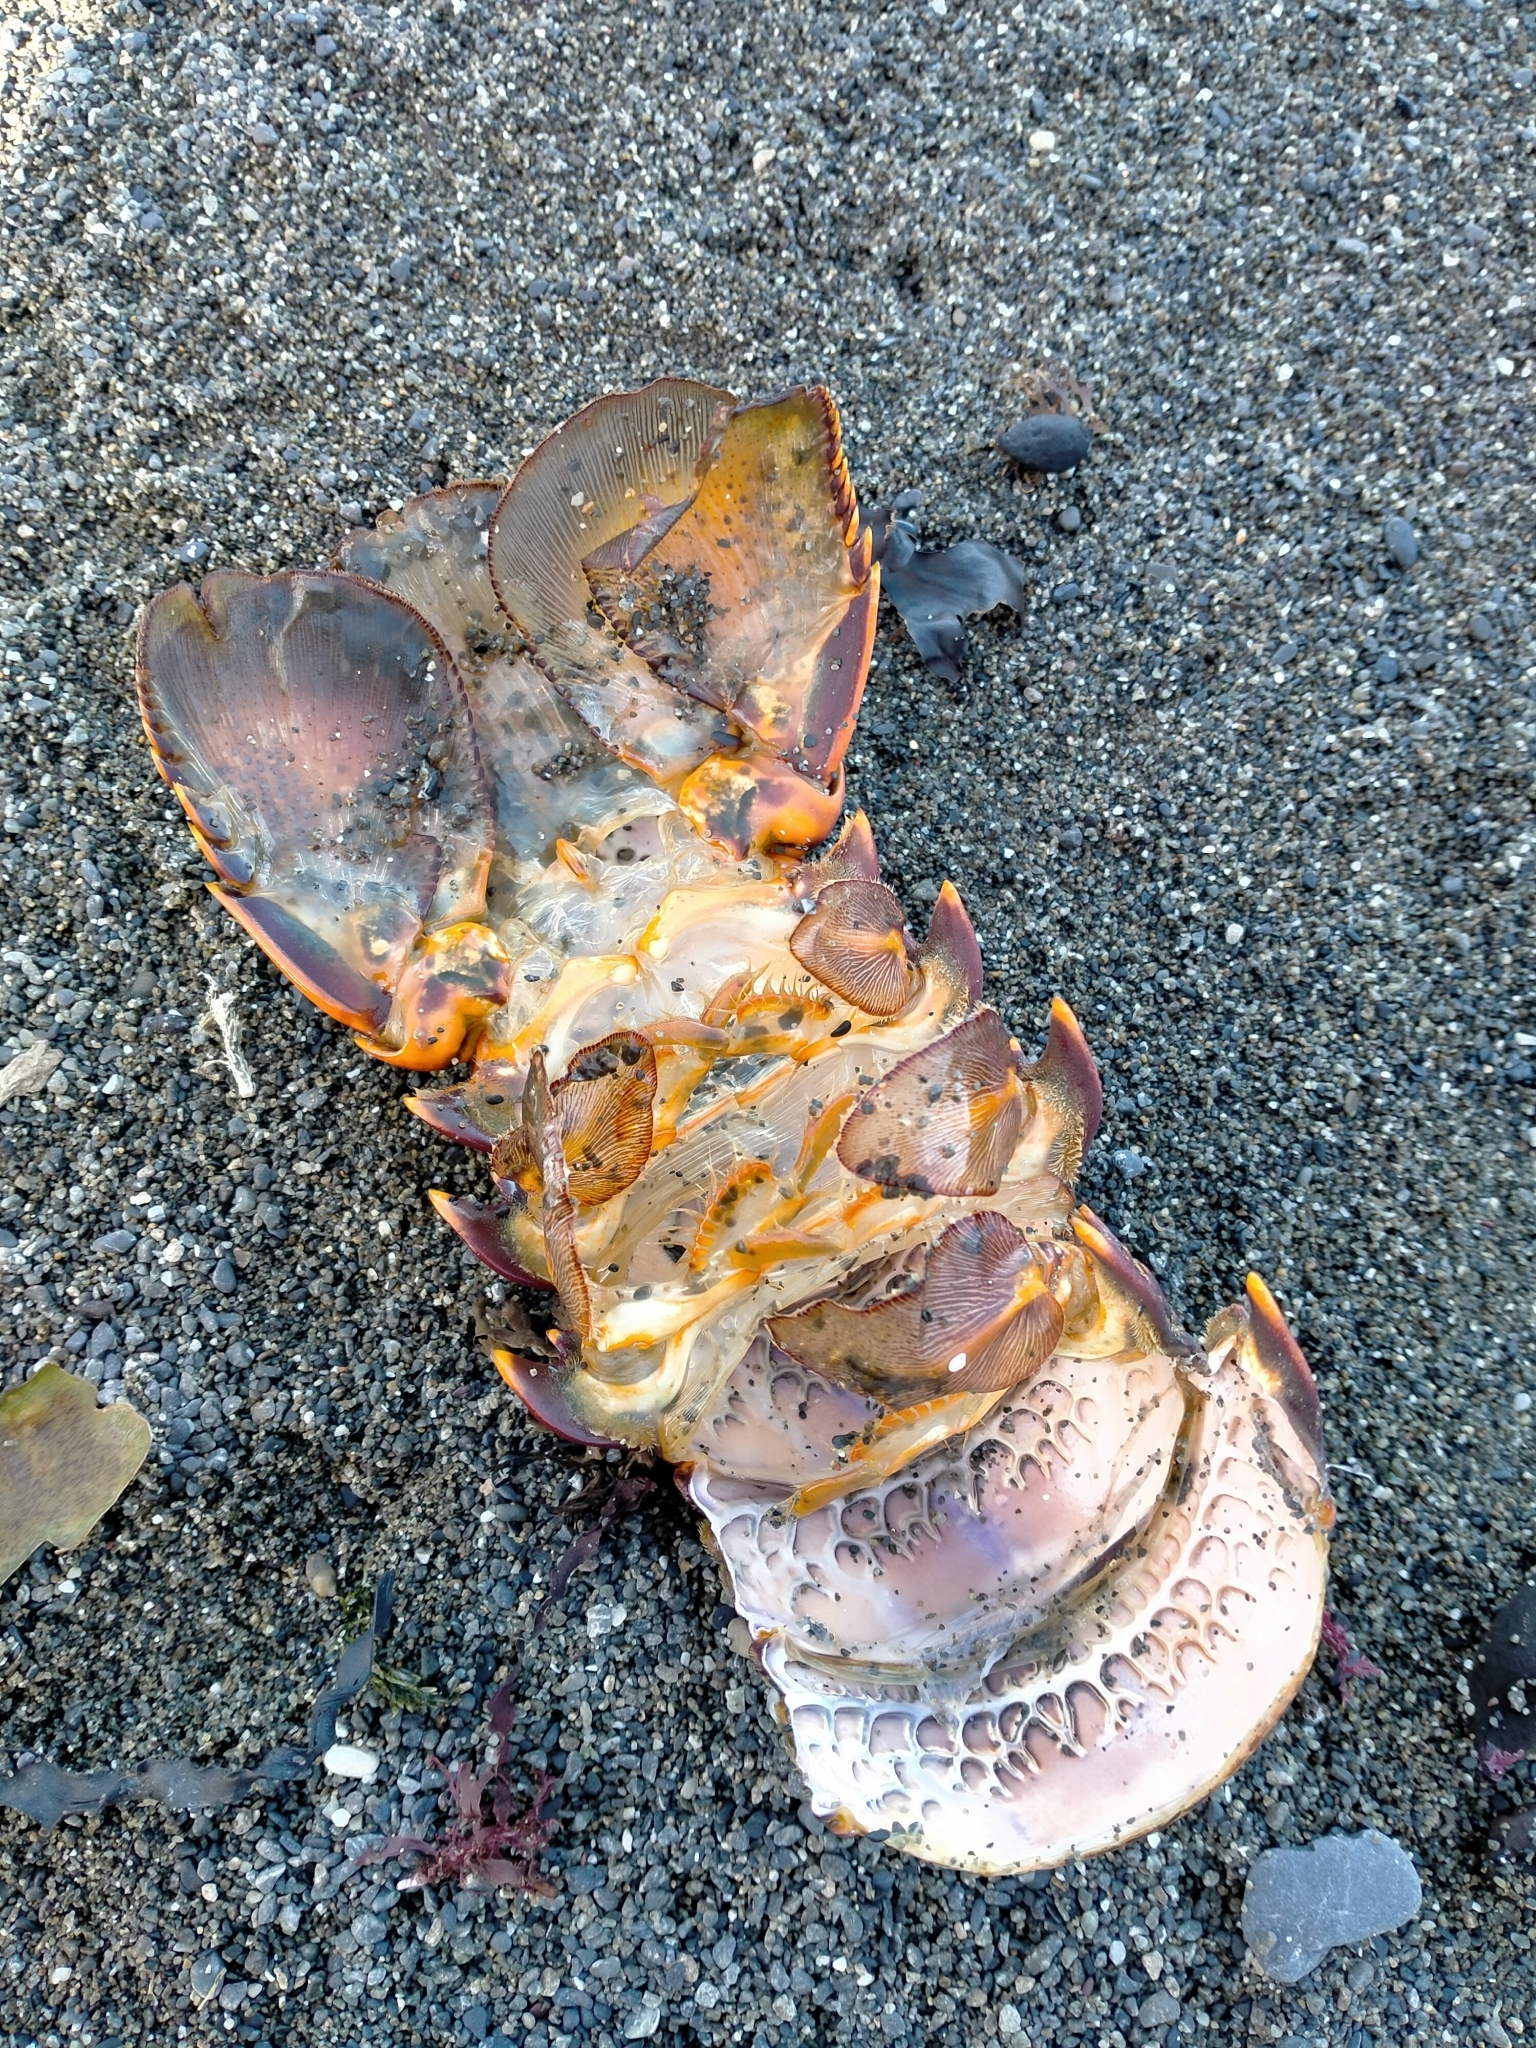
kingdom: Animalia
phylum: Arthropoda
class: Malacostraca
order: Decapoda
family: Palinuridae
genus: Jasus
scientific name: Jasus edwardsii
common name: Red rock lobster
